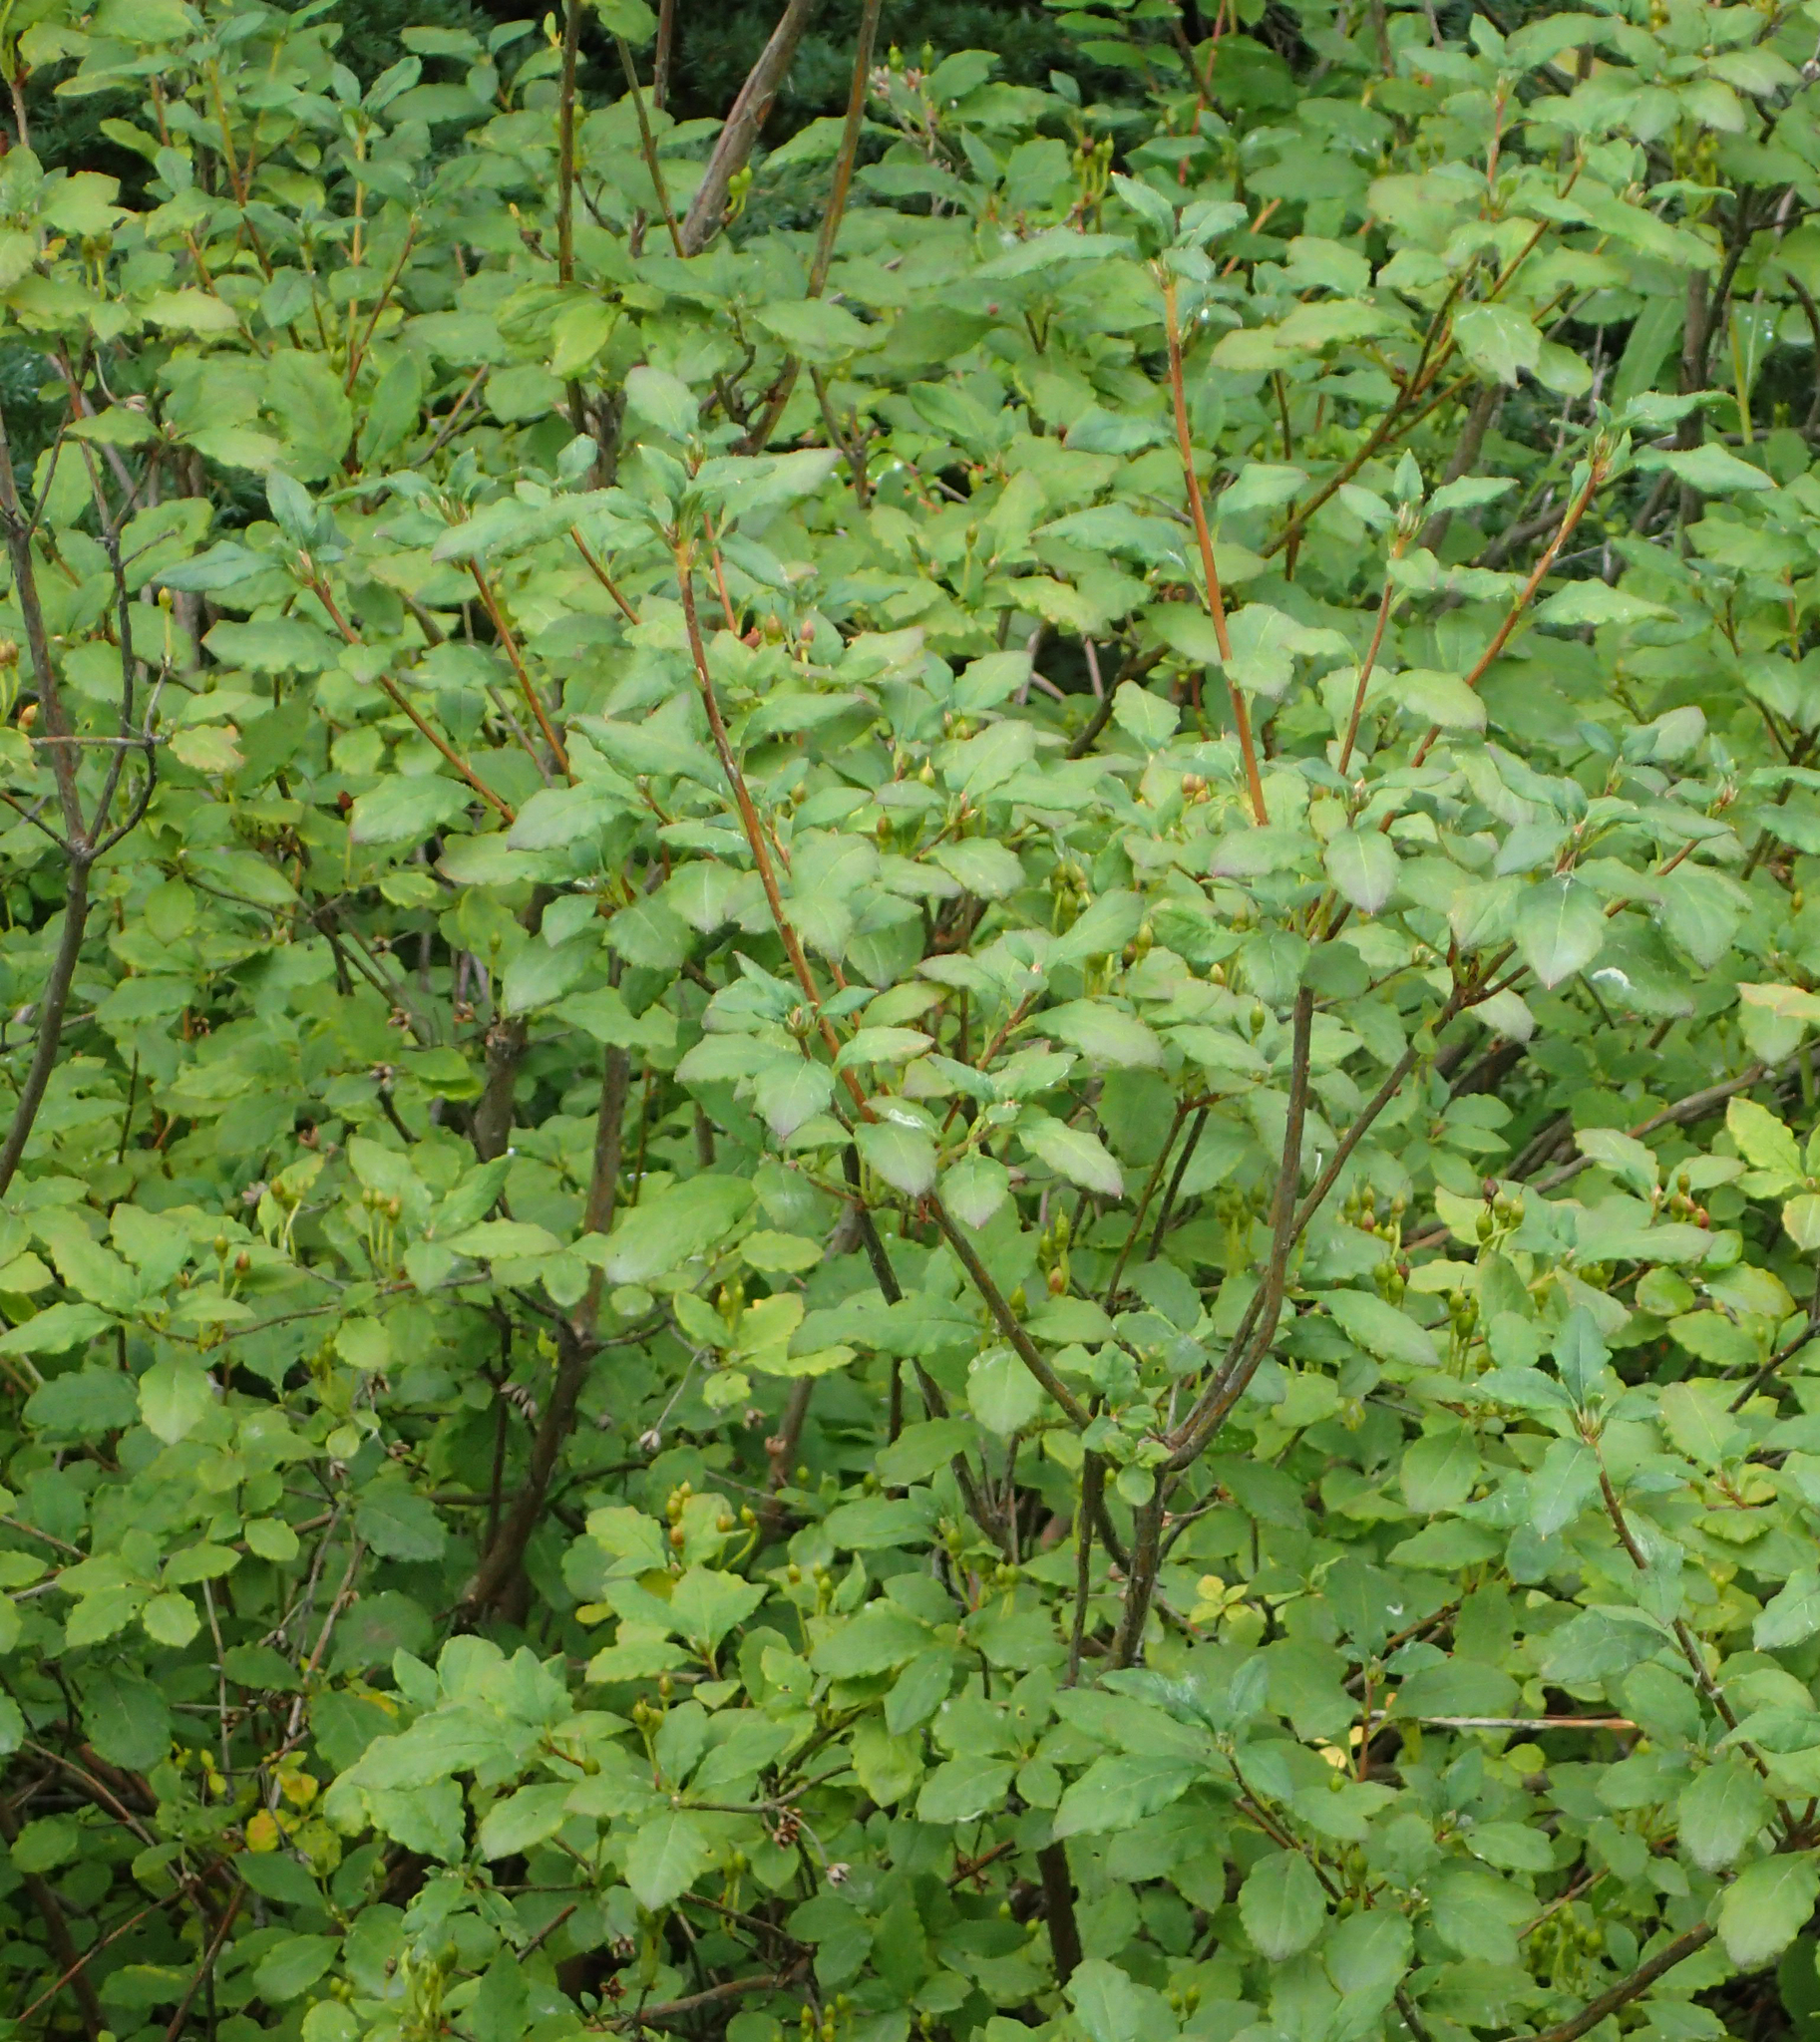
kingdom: Plantae
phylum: Tracheophyta
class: Magnoliopsida
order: Ericales
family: Ericaceae
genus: Rhododendron
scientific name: Rhododendron menziesii
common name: Pacific menziesia
